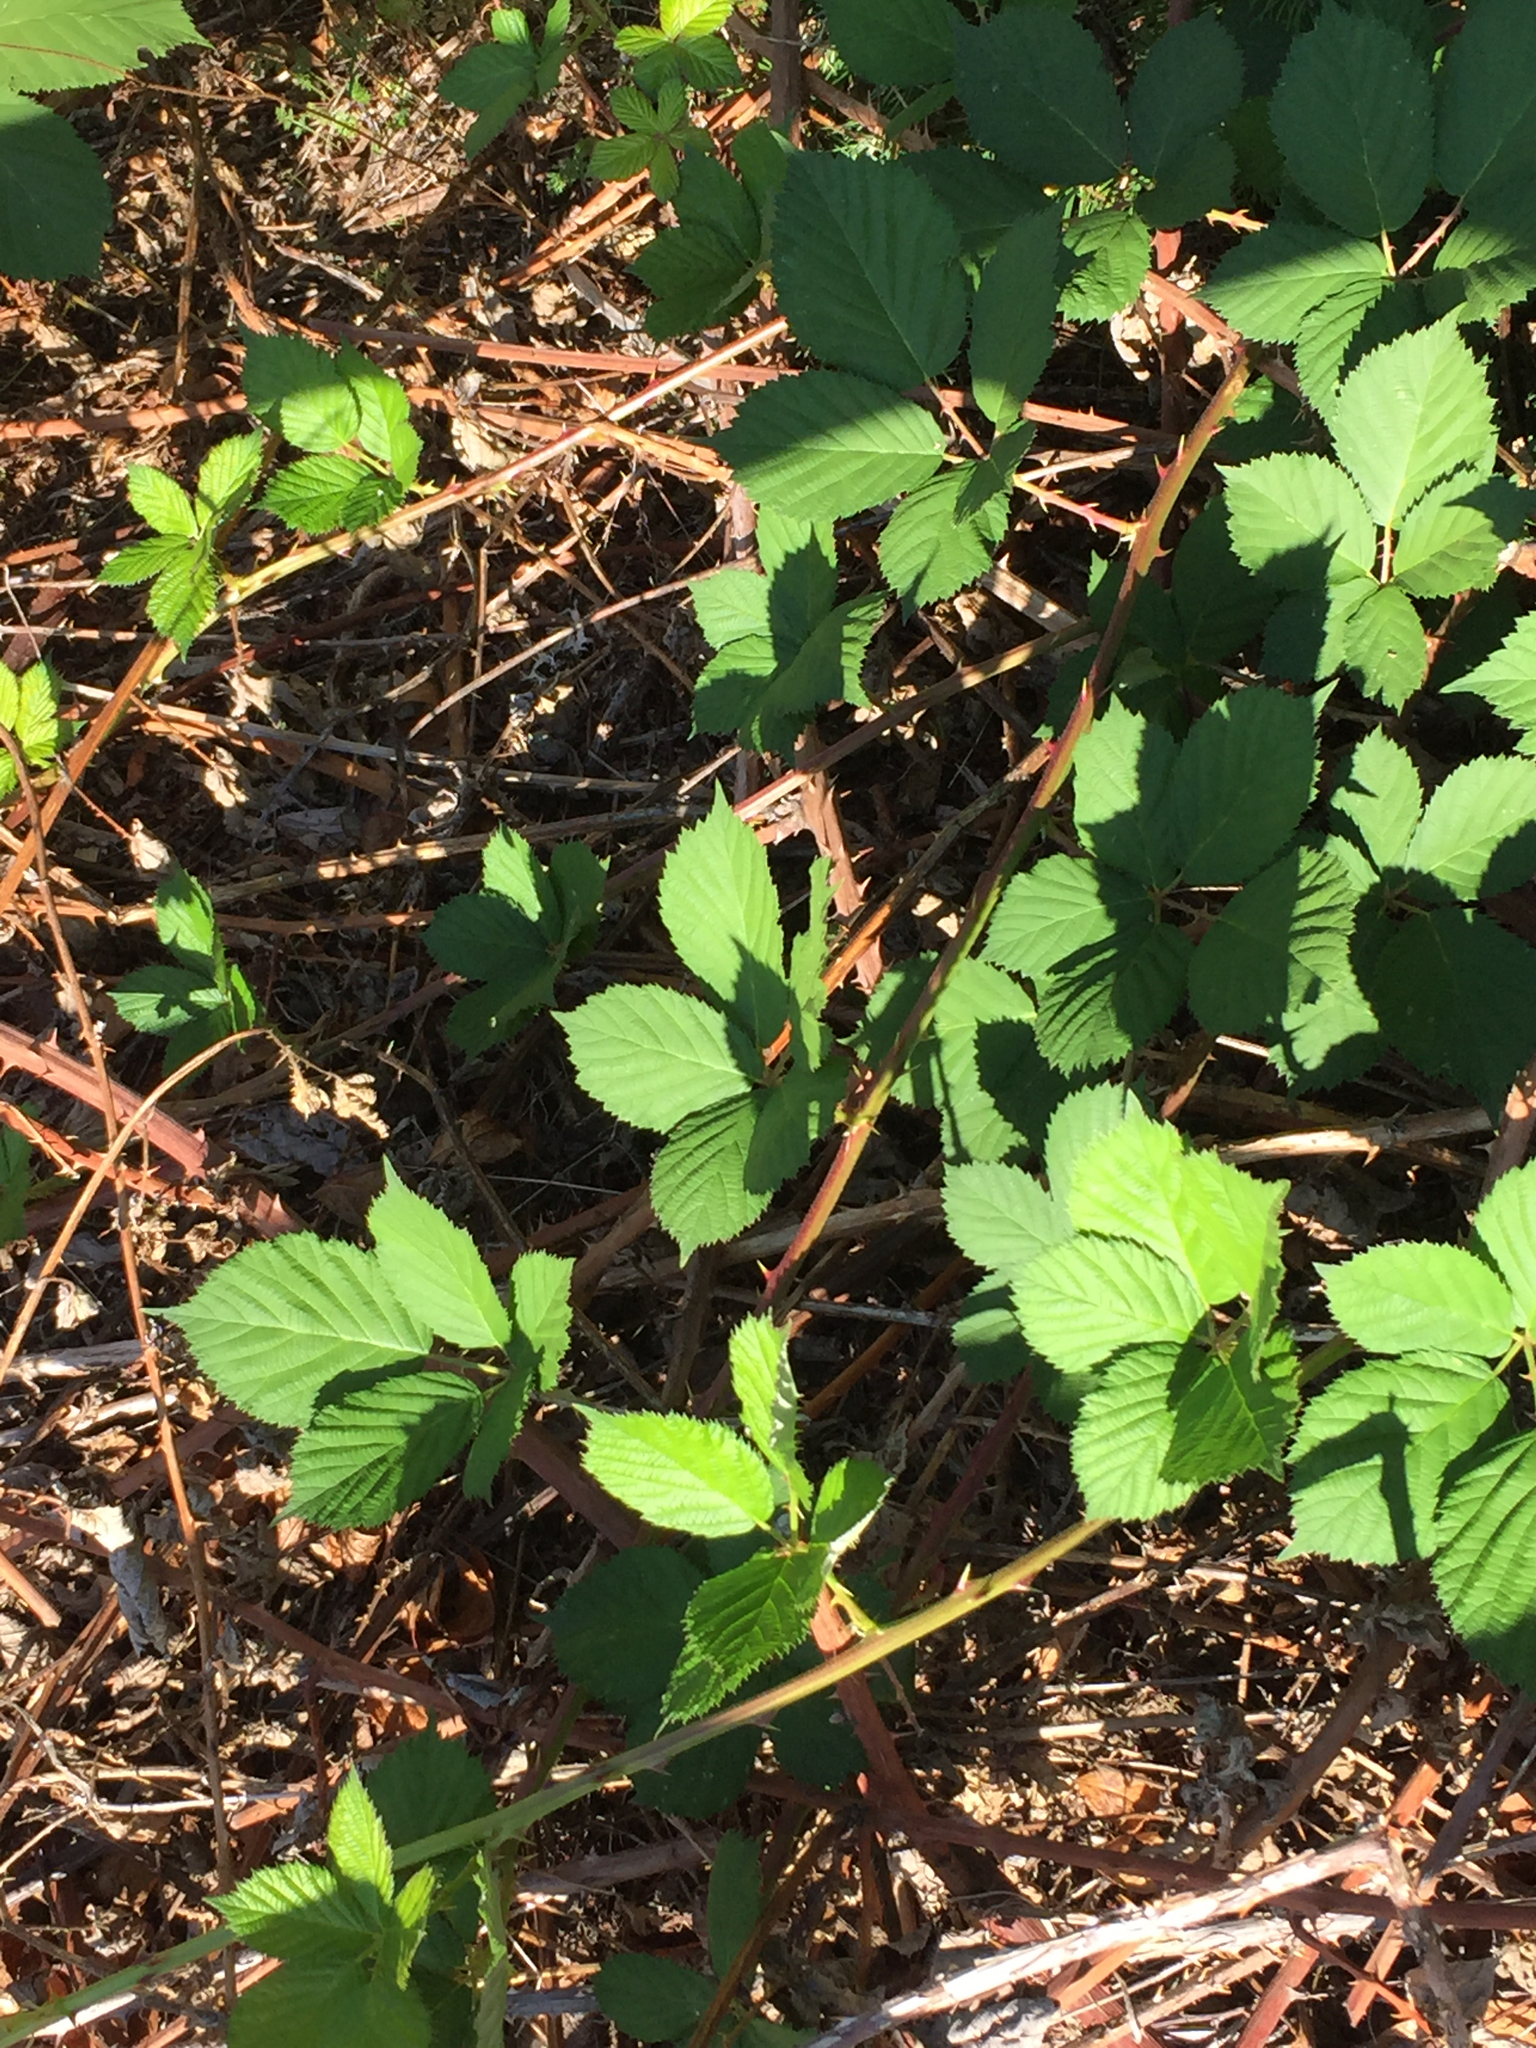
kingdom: Plantae
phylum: Tracheophyta
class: Magnoliopsida
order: Rosales
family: Rosaceae
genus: Rubus
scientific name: Rubus armeniacus
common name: Himalayan blackberry
